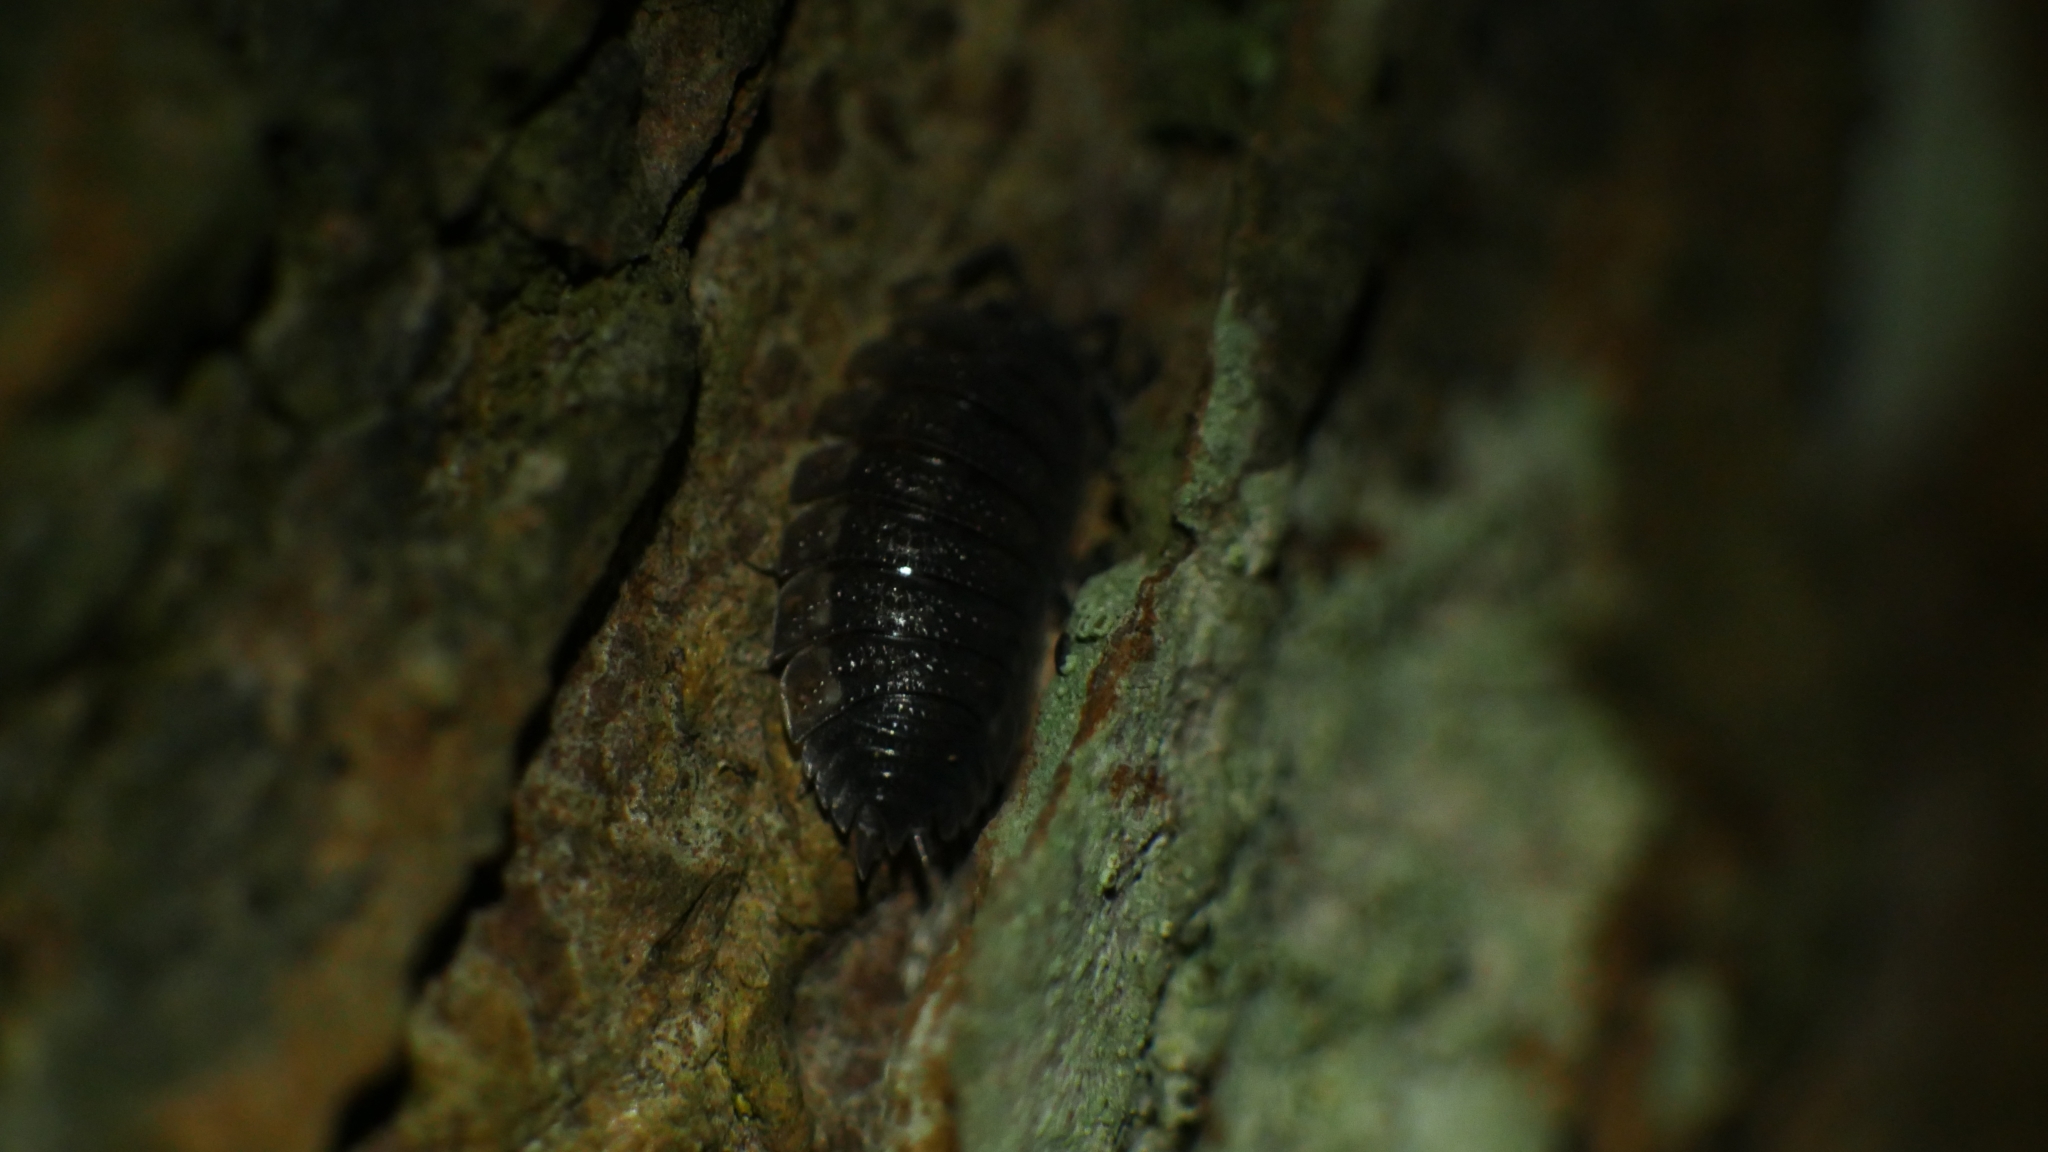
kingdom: Animalia
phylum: Arthropoda
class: Malacostraca
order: Isopoda
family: Porcellionidae
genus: Porcellio
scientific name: Porcellio scaber
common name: Common rough woodlouse
